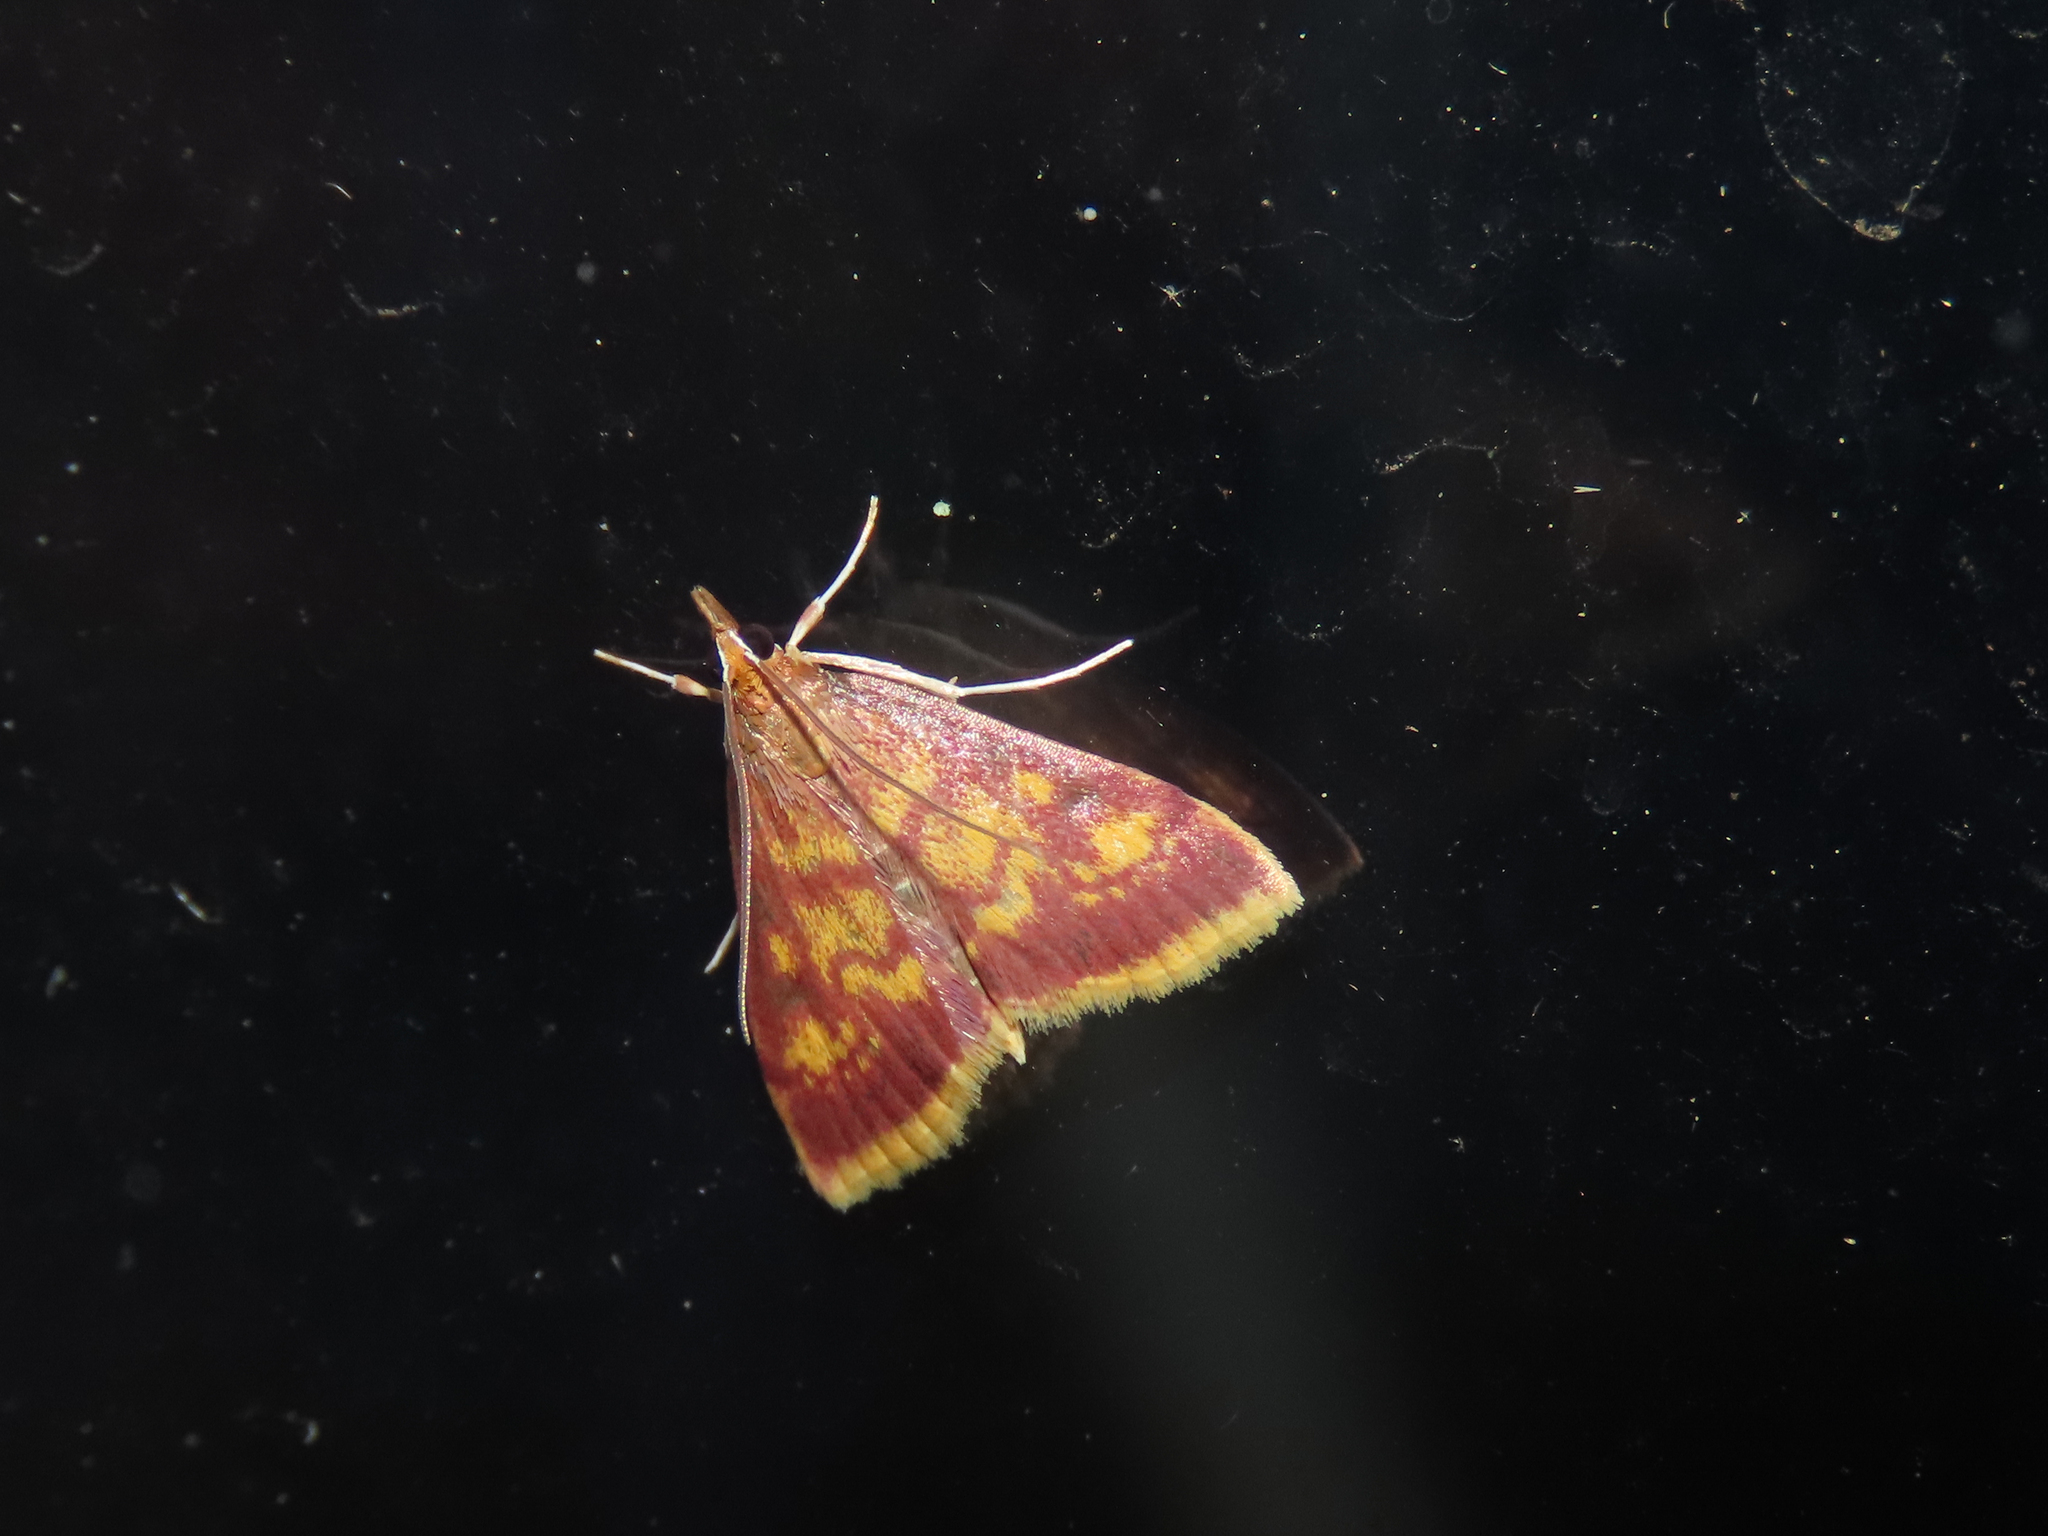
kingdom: Animalia
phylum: Arthropoda
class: Insecta
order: Lepidoptera
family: Crambidae
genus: Pyrausta
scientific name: Pyrausta acrionalis
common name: Mint-loving pyrausta moth
